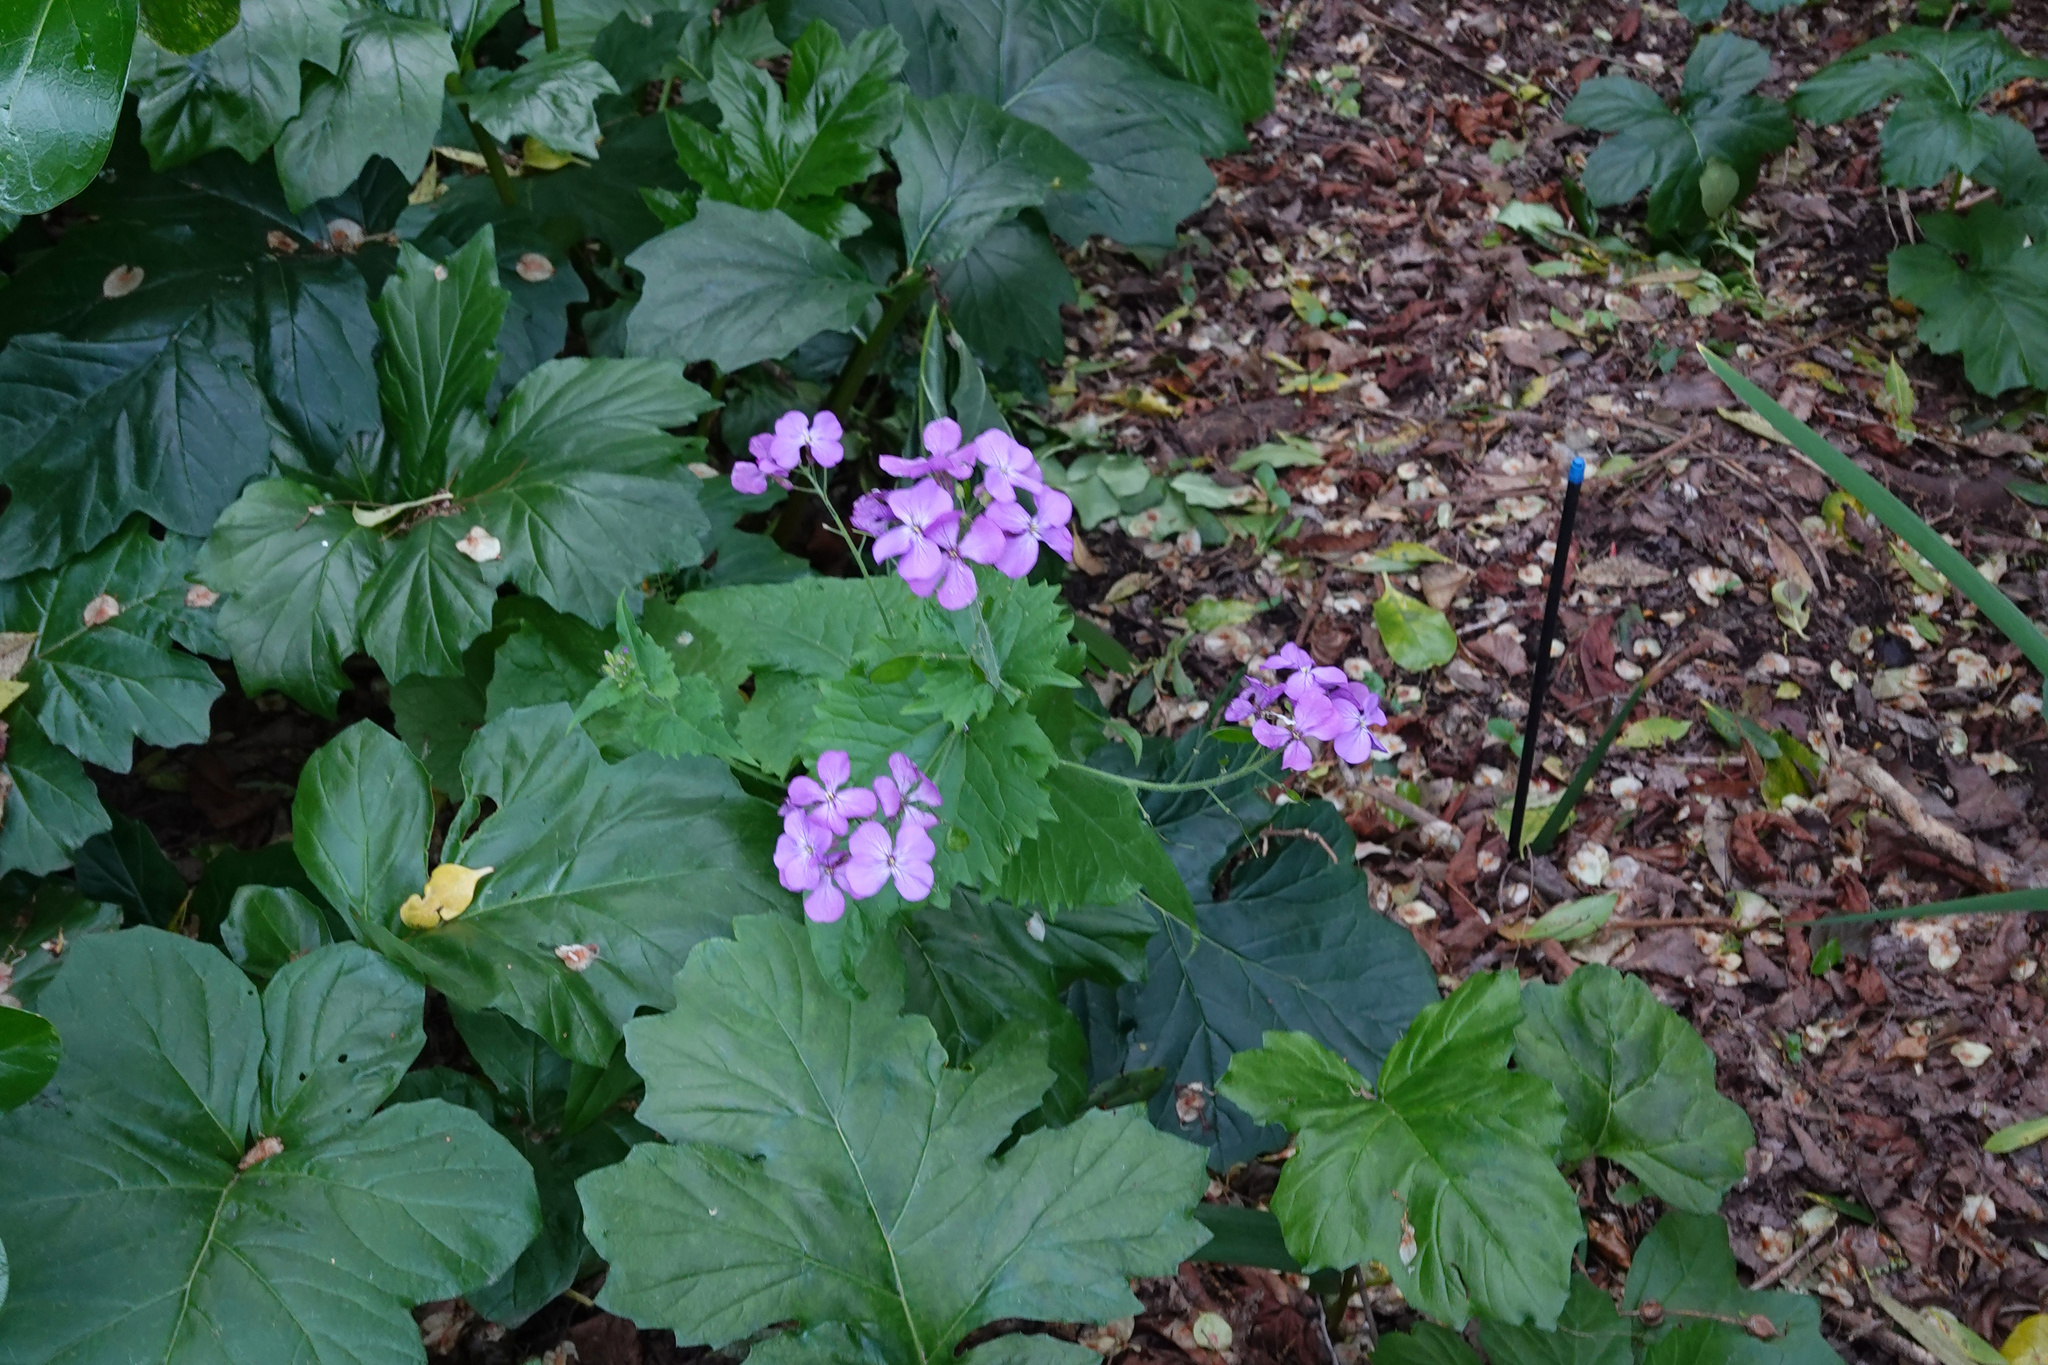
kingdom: Plantae
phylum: Tracheophyta
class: Magnoliopsida
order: Brassicales
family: Brassicaceae
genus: Lunaria
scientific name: Lunaria annua
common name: Honesty
